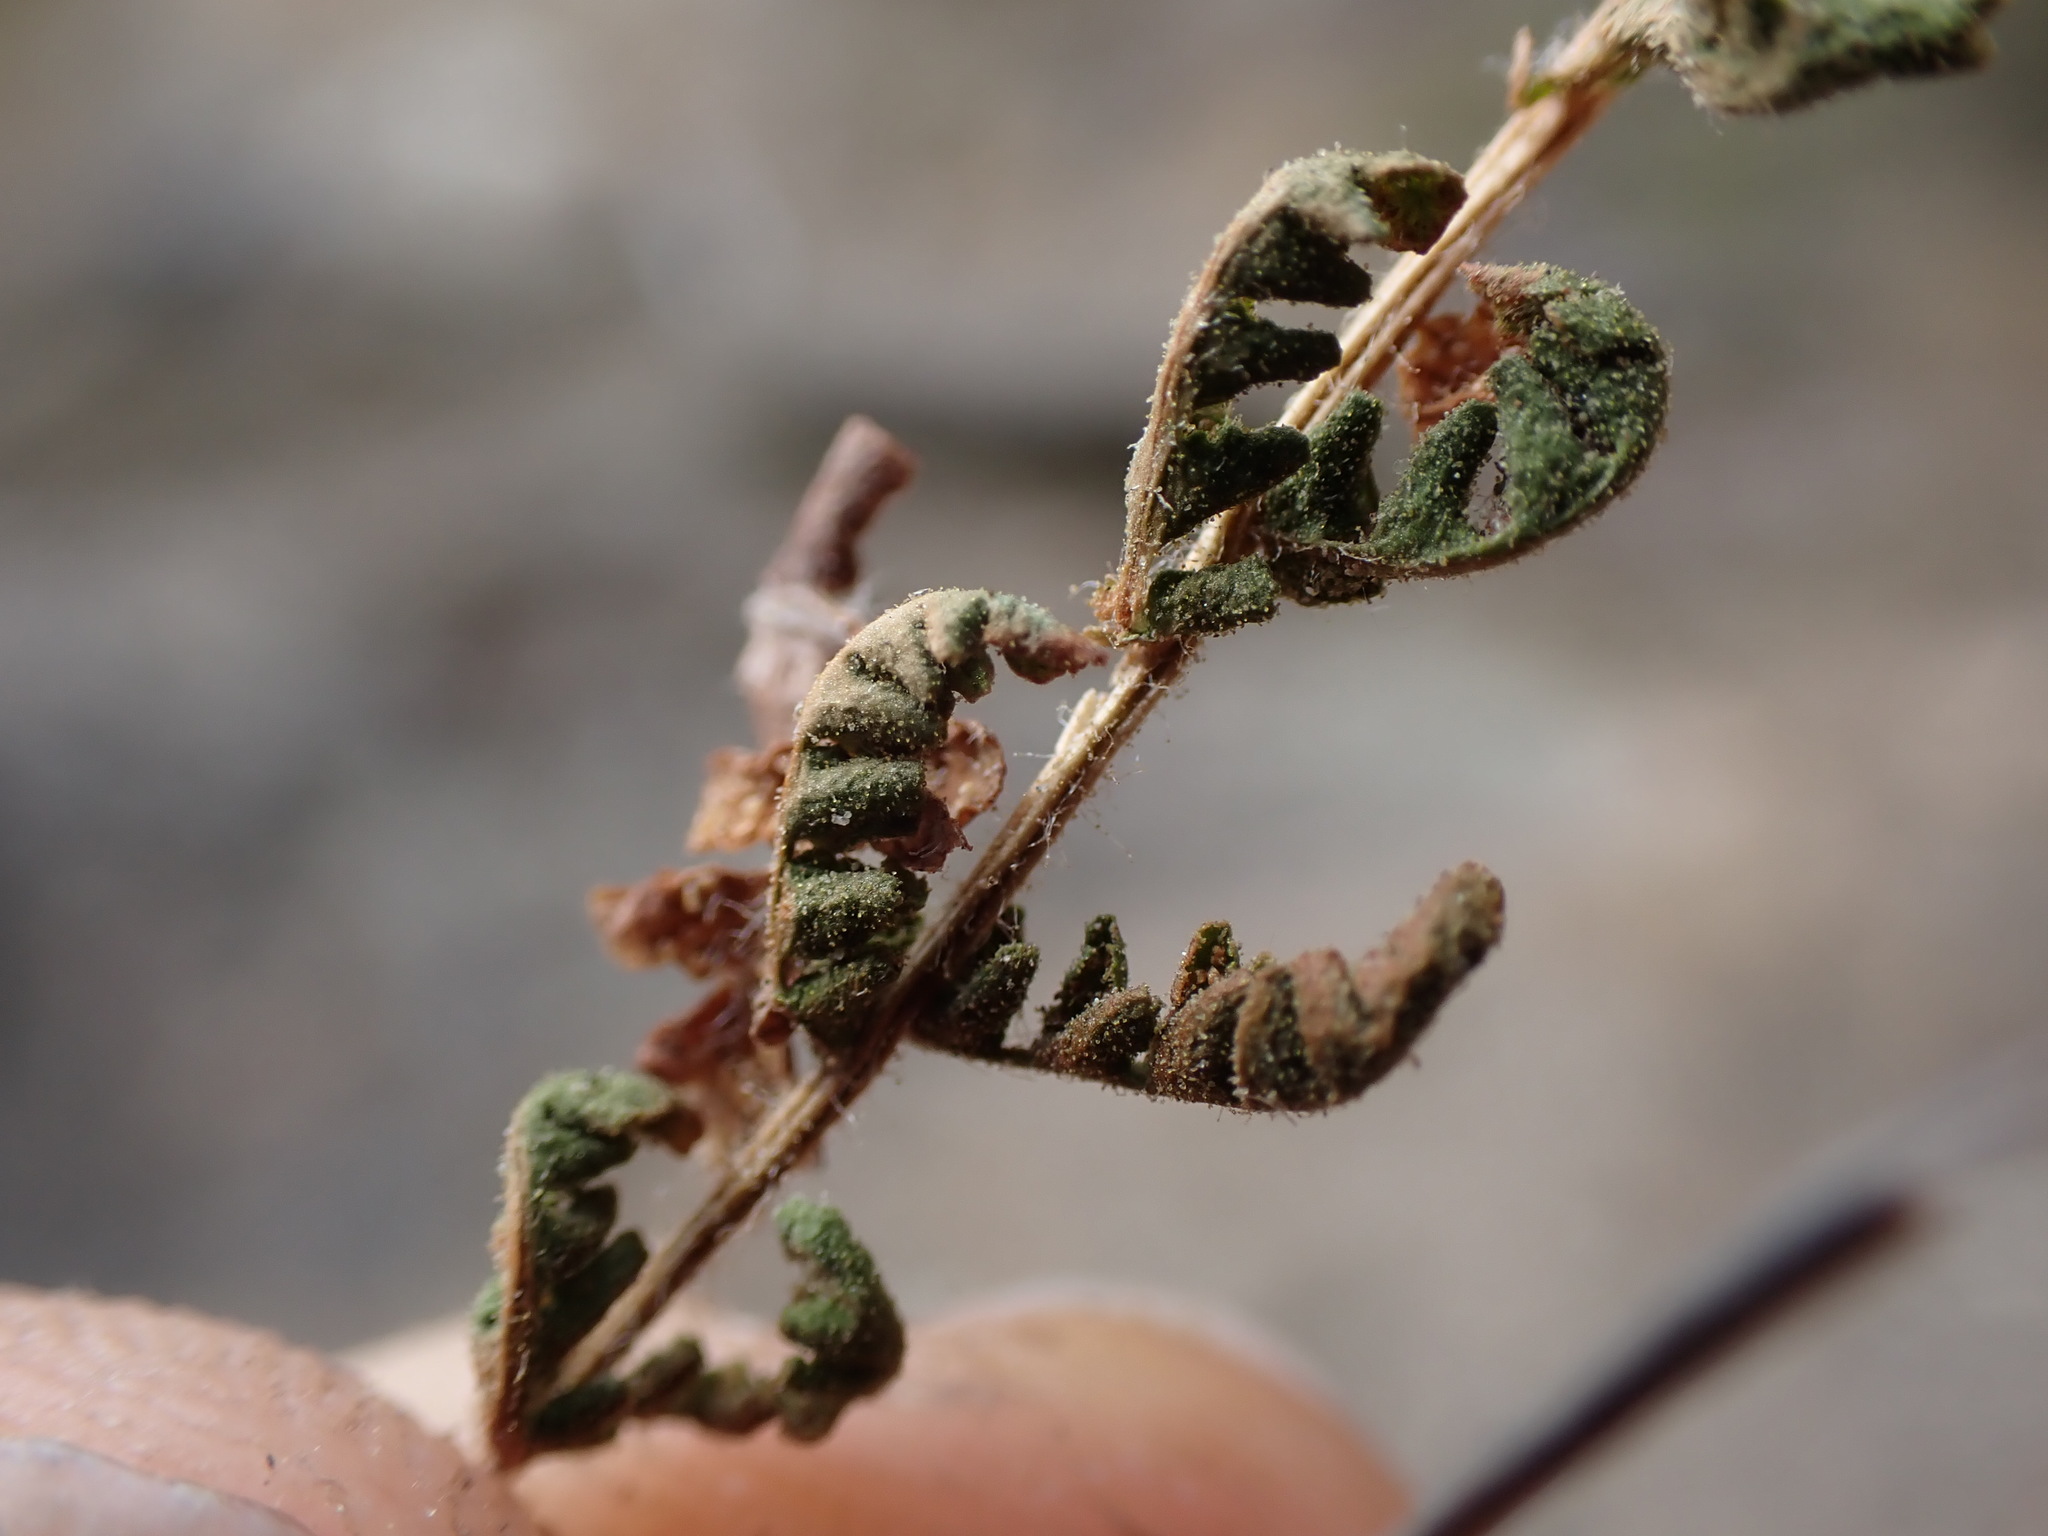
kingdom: Plantae
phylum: Tracheophyta
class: Polypodiopsida
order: Polypodiales
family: Woodsiaceae
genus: Physematium
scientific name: Physematium scopulinum
